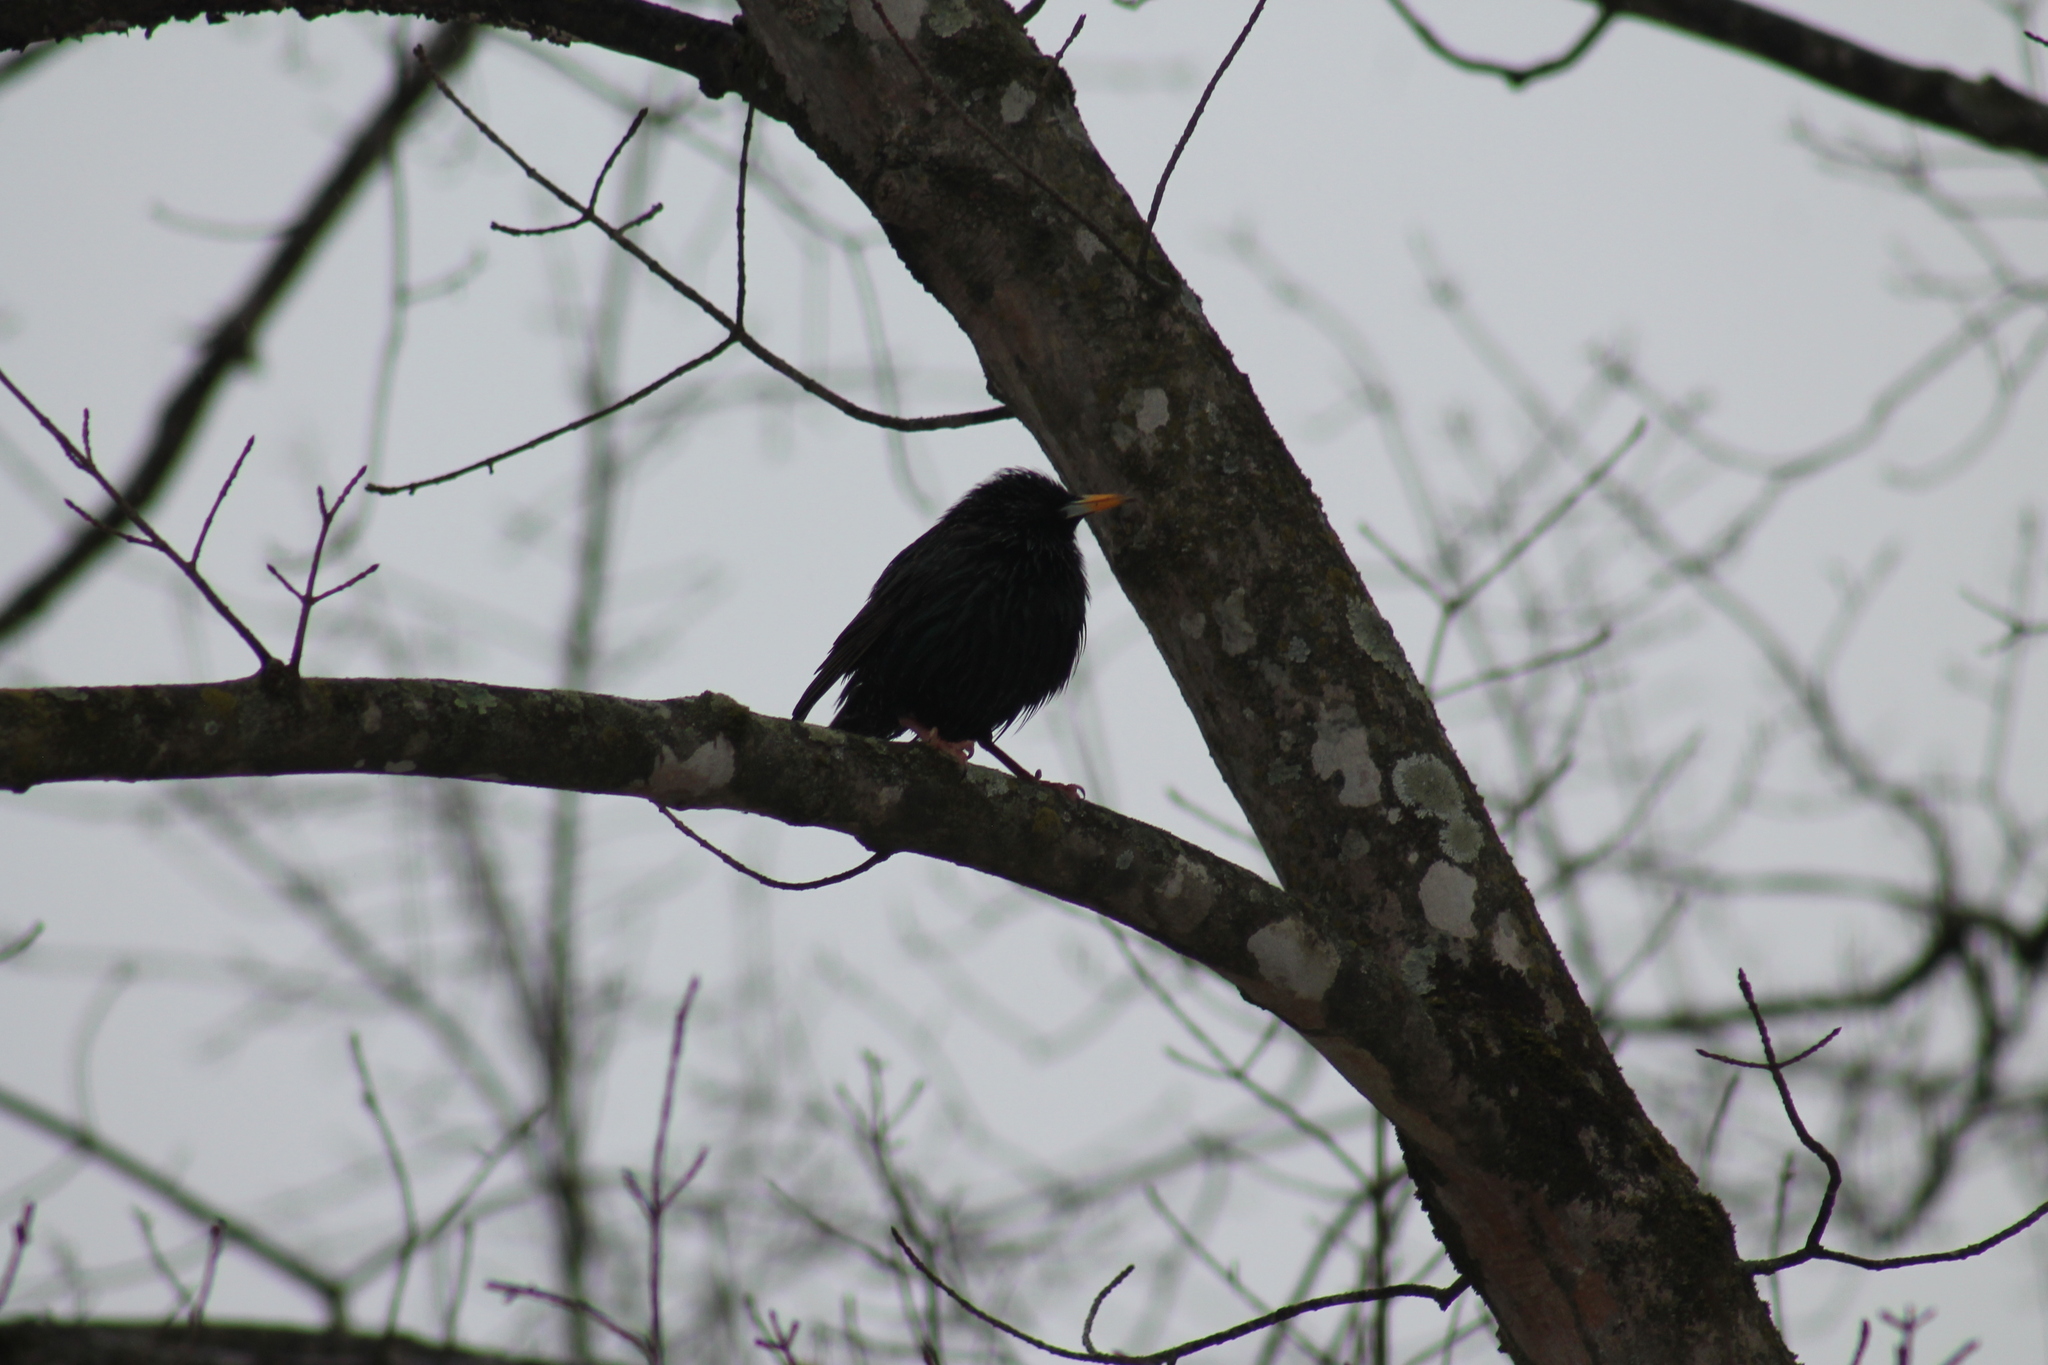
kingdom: Animalia
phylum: Chordata
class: Aves
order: Passeriformes
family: Sturnidae
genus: Sturnus
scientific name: Sturnus vulgaris
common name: Common starling
